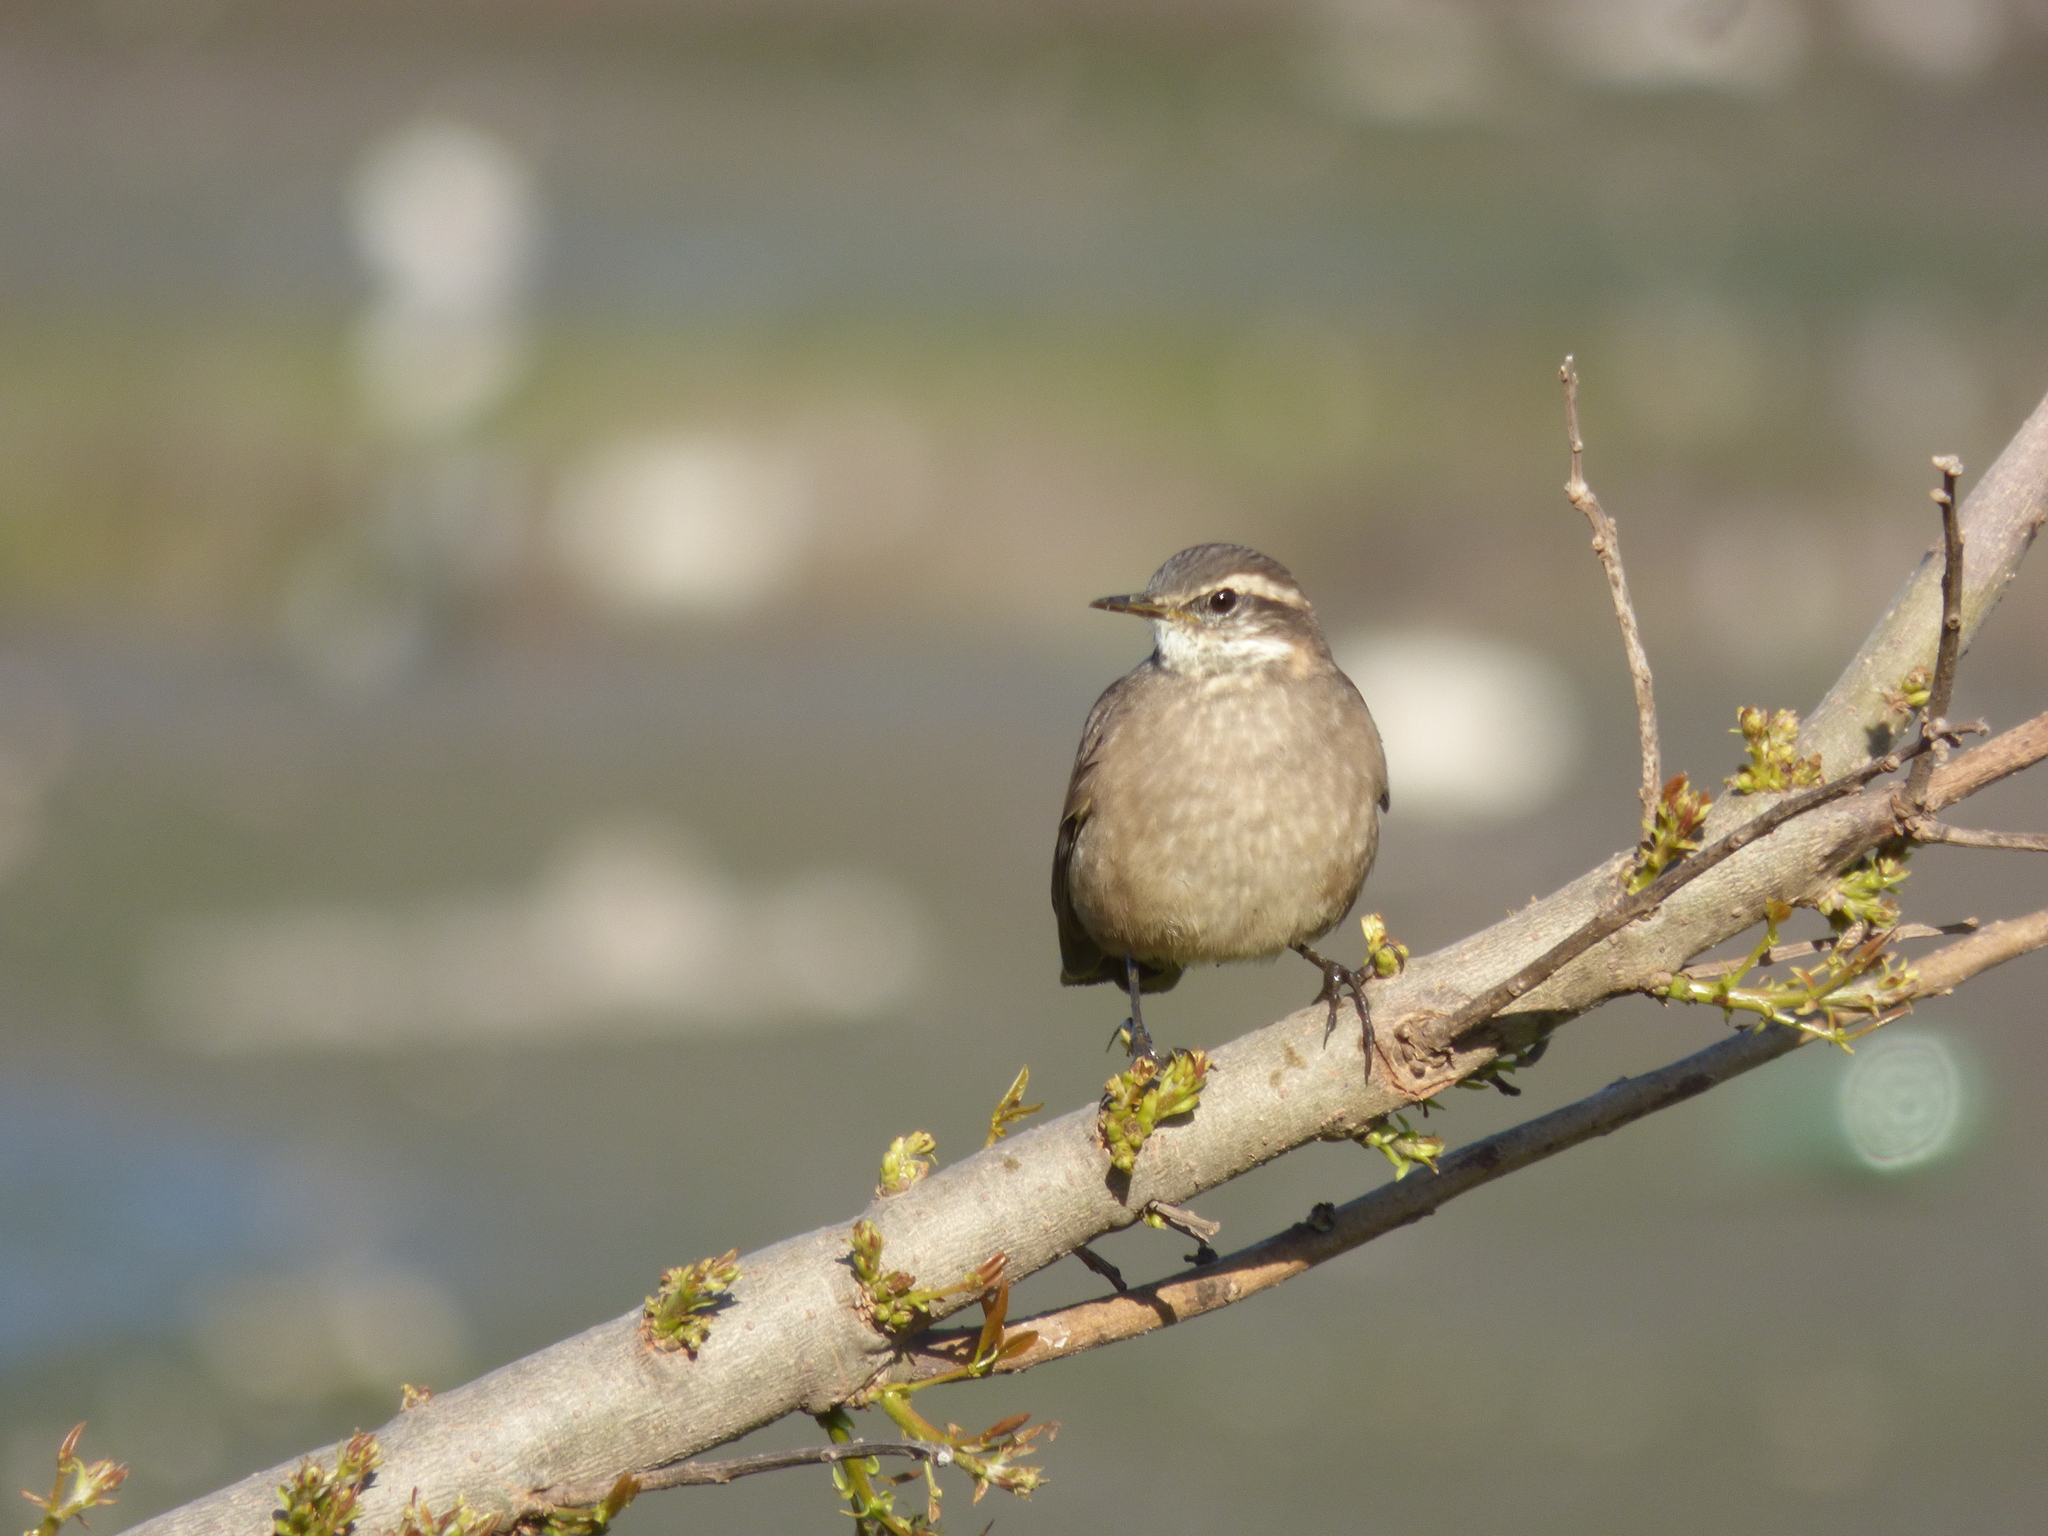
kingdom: Animalia
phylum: Chordata
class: Aves
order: Passeriformes
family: Furnariidae
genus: Cinclodes
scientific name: Cinclodes fuscus
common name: Buff-winged cinclodes
